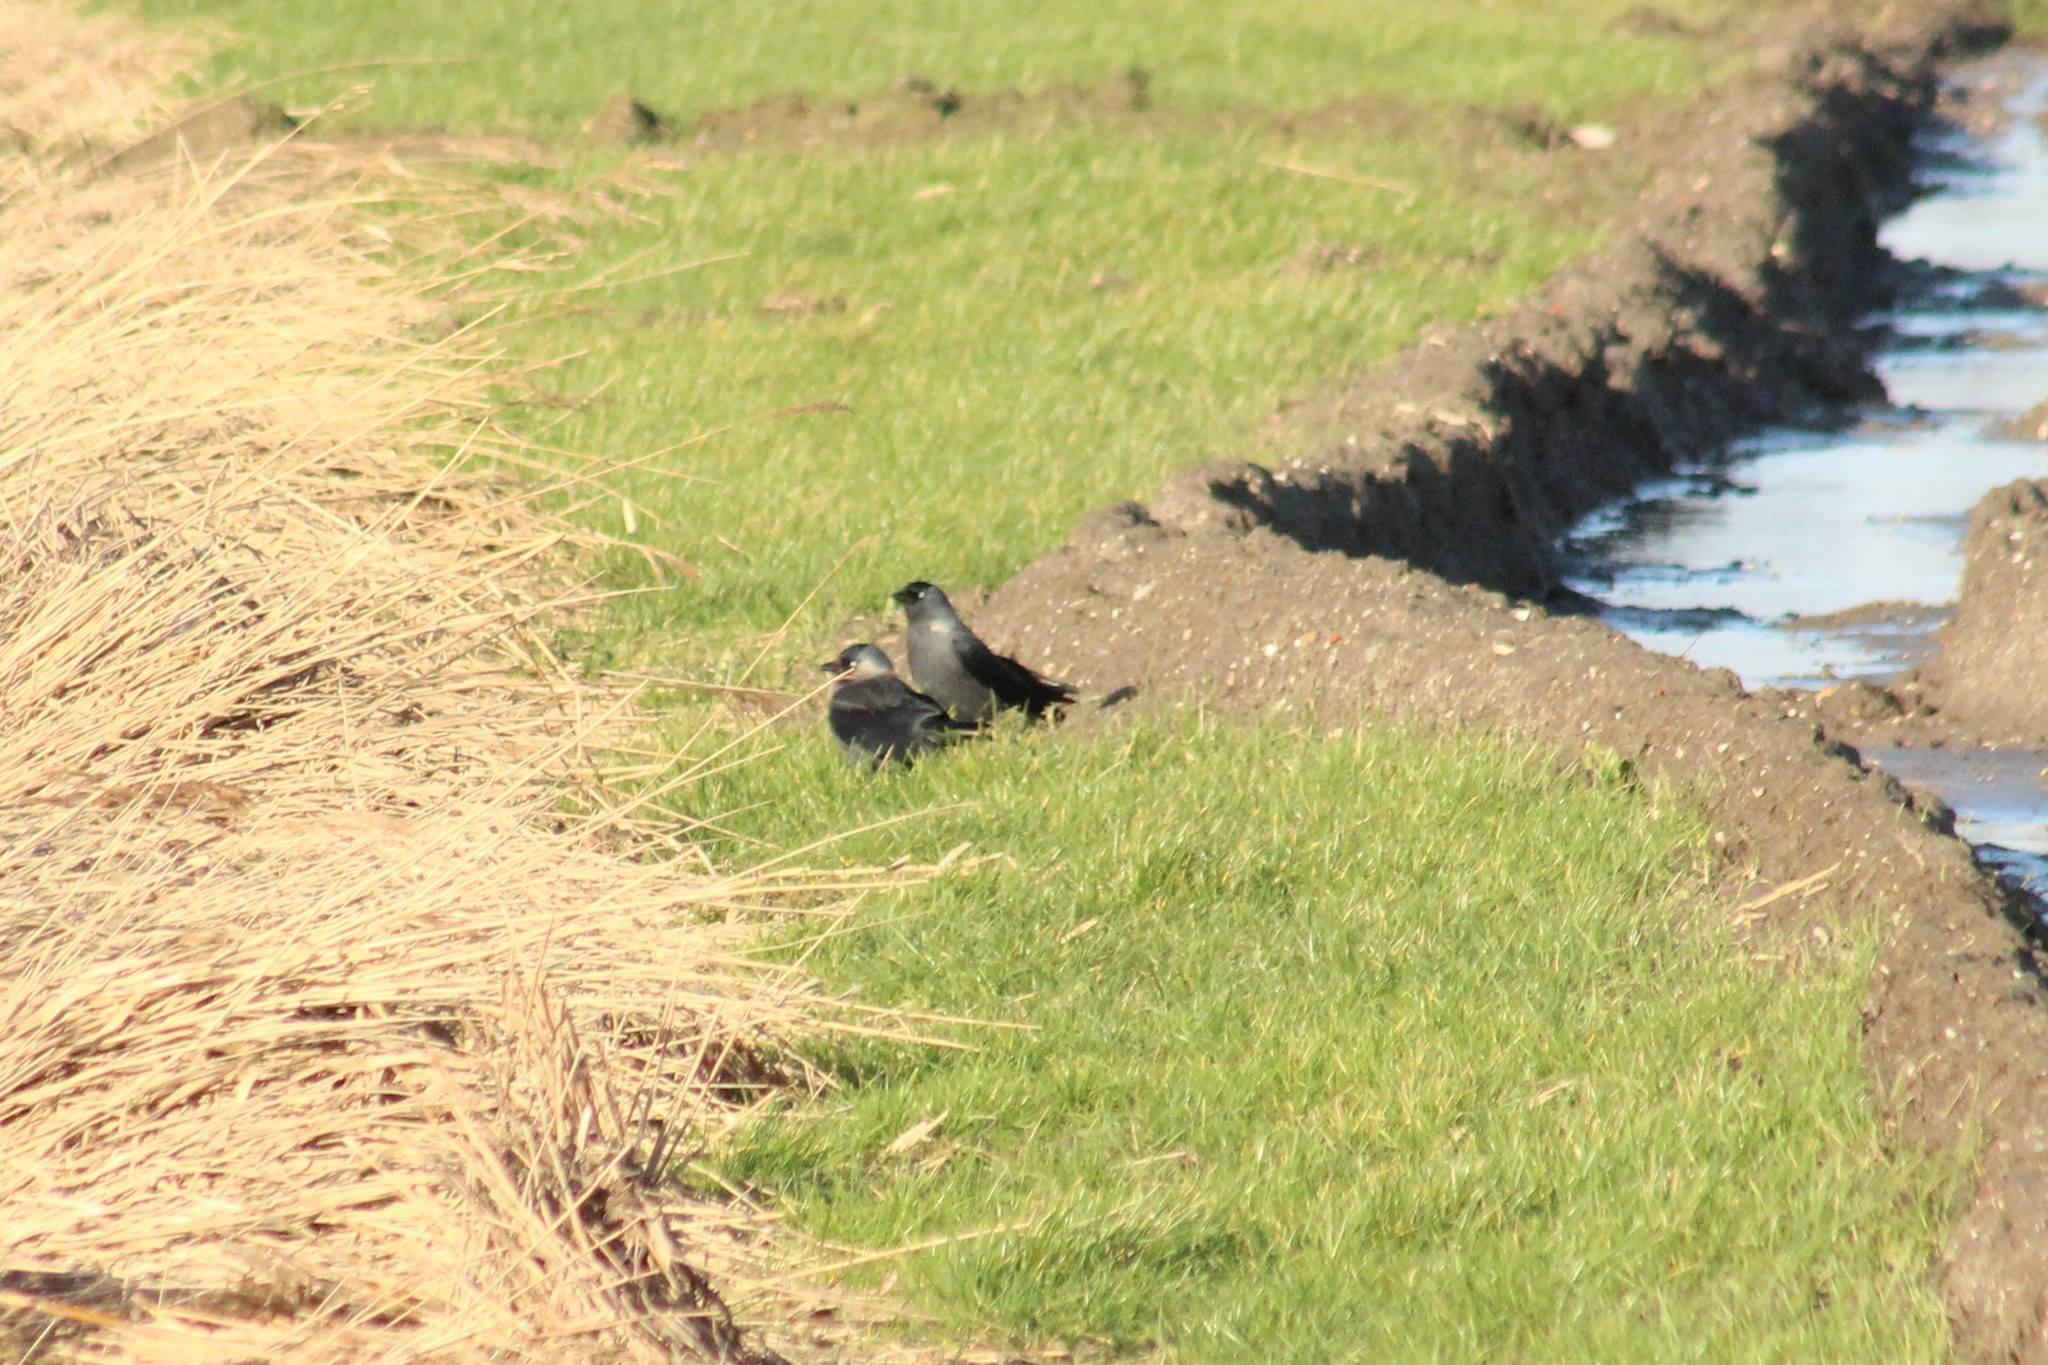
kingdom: Animalia
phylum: Chordata
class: Aves
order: Passeriformes
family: Corvidae
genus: Coloeus
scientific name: Coloeus monedula
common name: Western jackdaw
